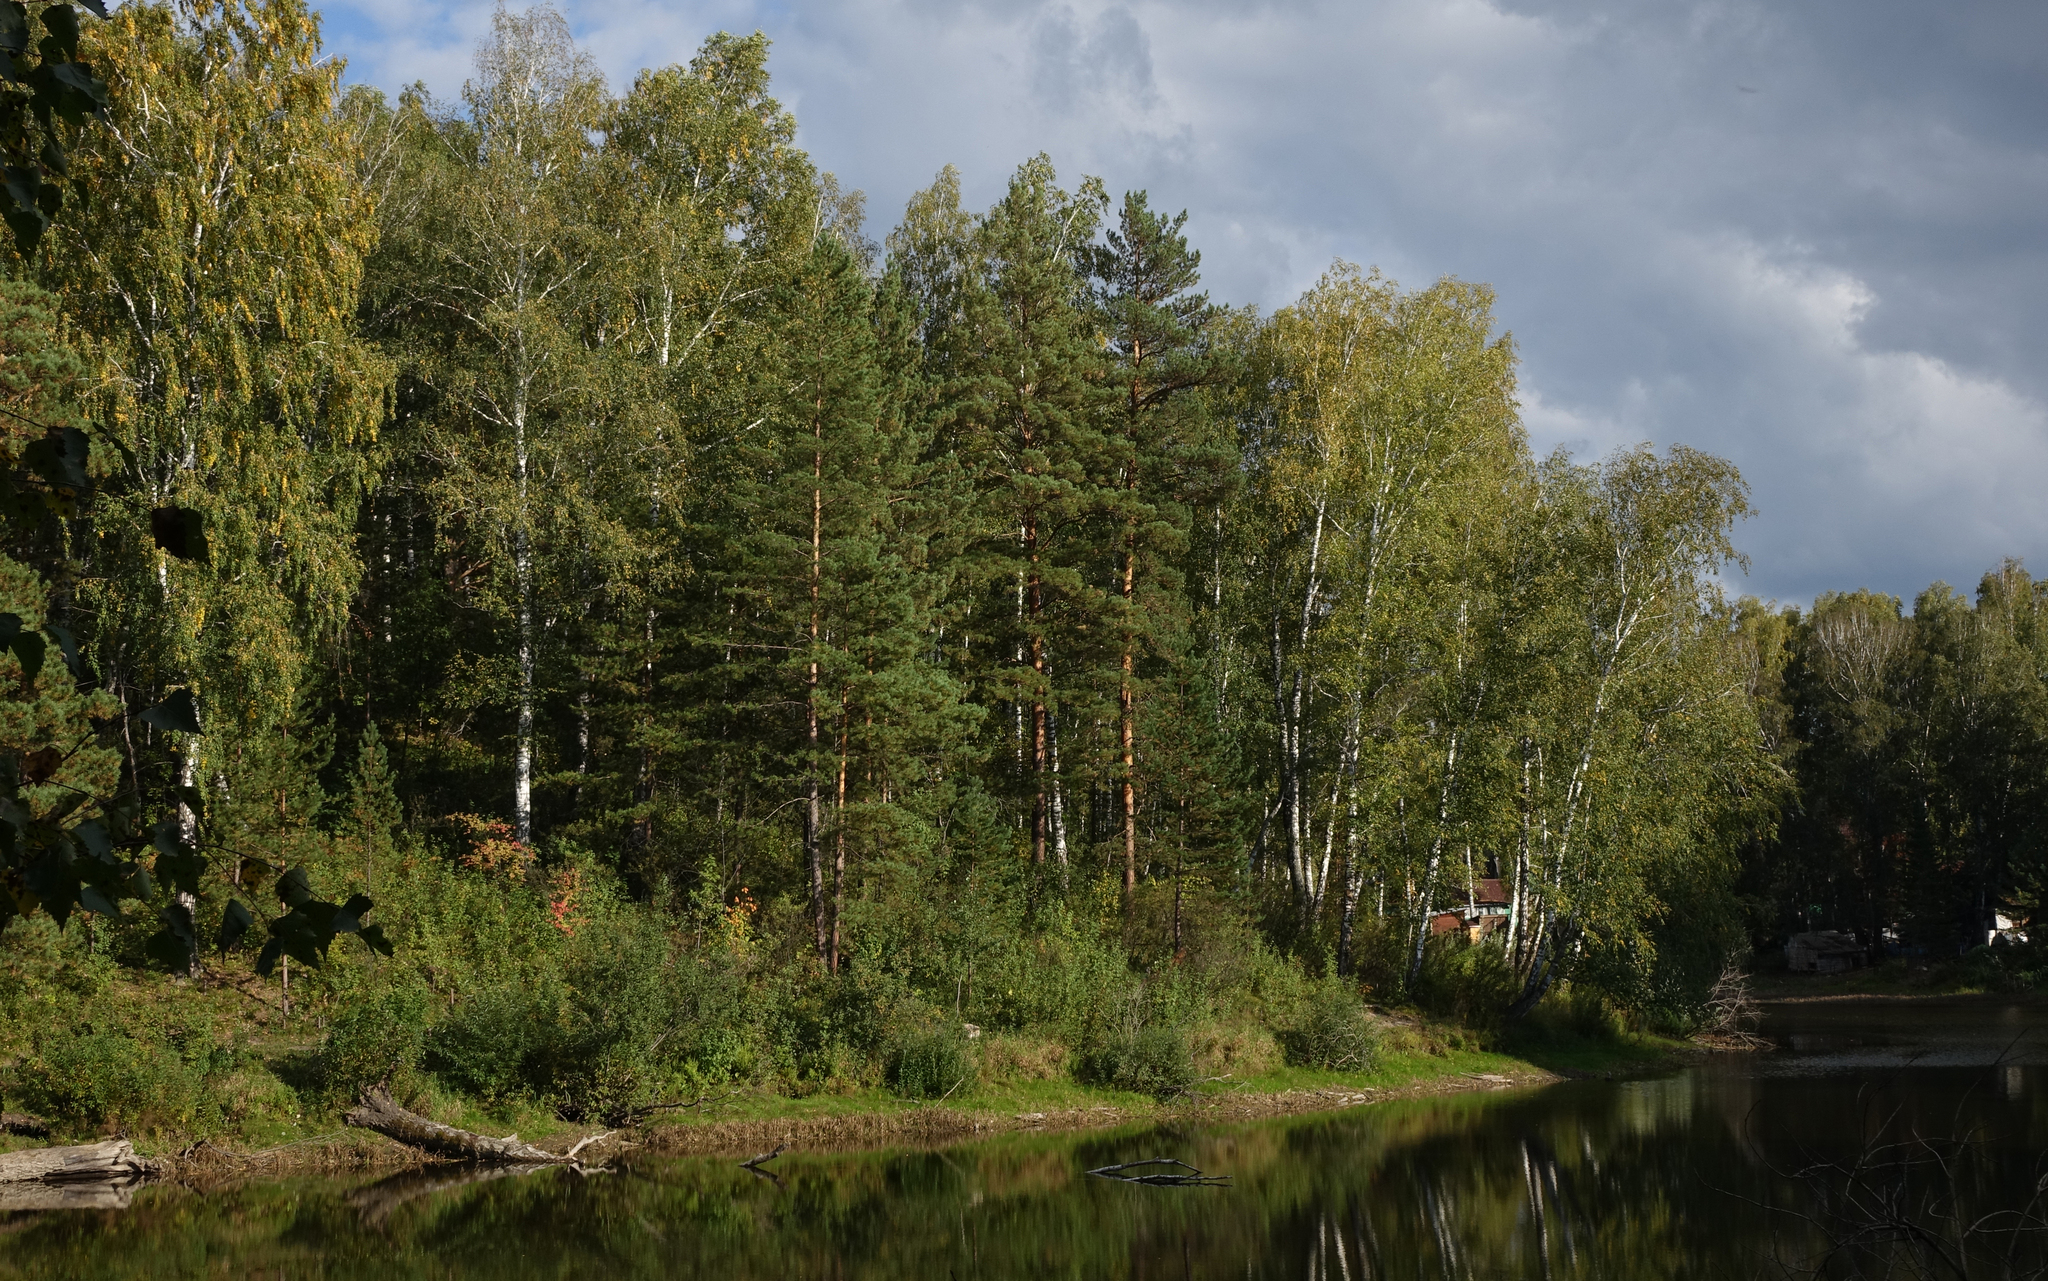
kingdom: Plantae
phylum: Tracheophyta
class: Pinopsida
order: Pinales
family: Pinaceae
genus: Pinus
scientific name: Pinus sylvestris
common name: Scots pine
